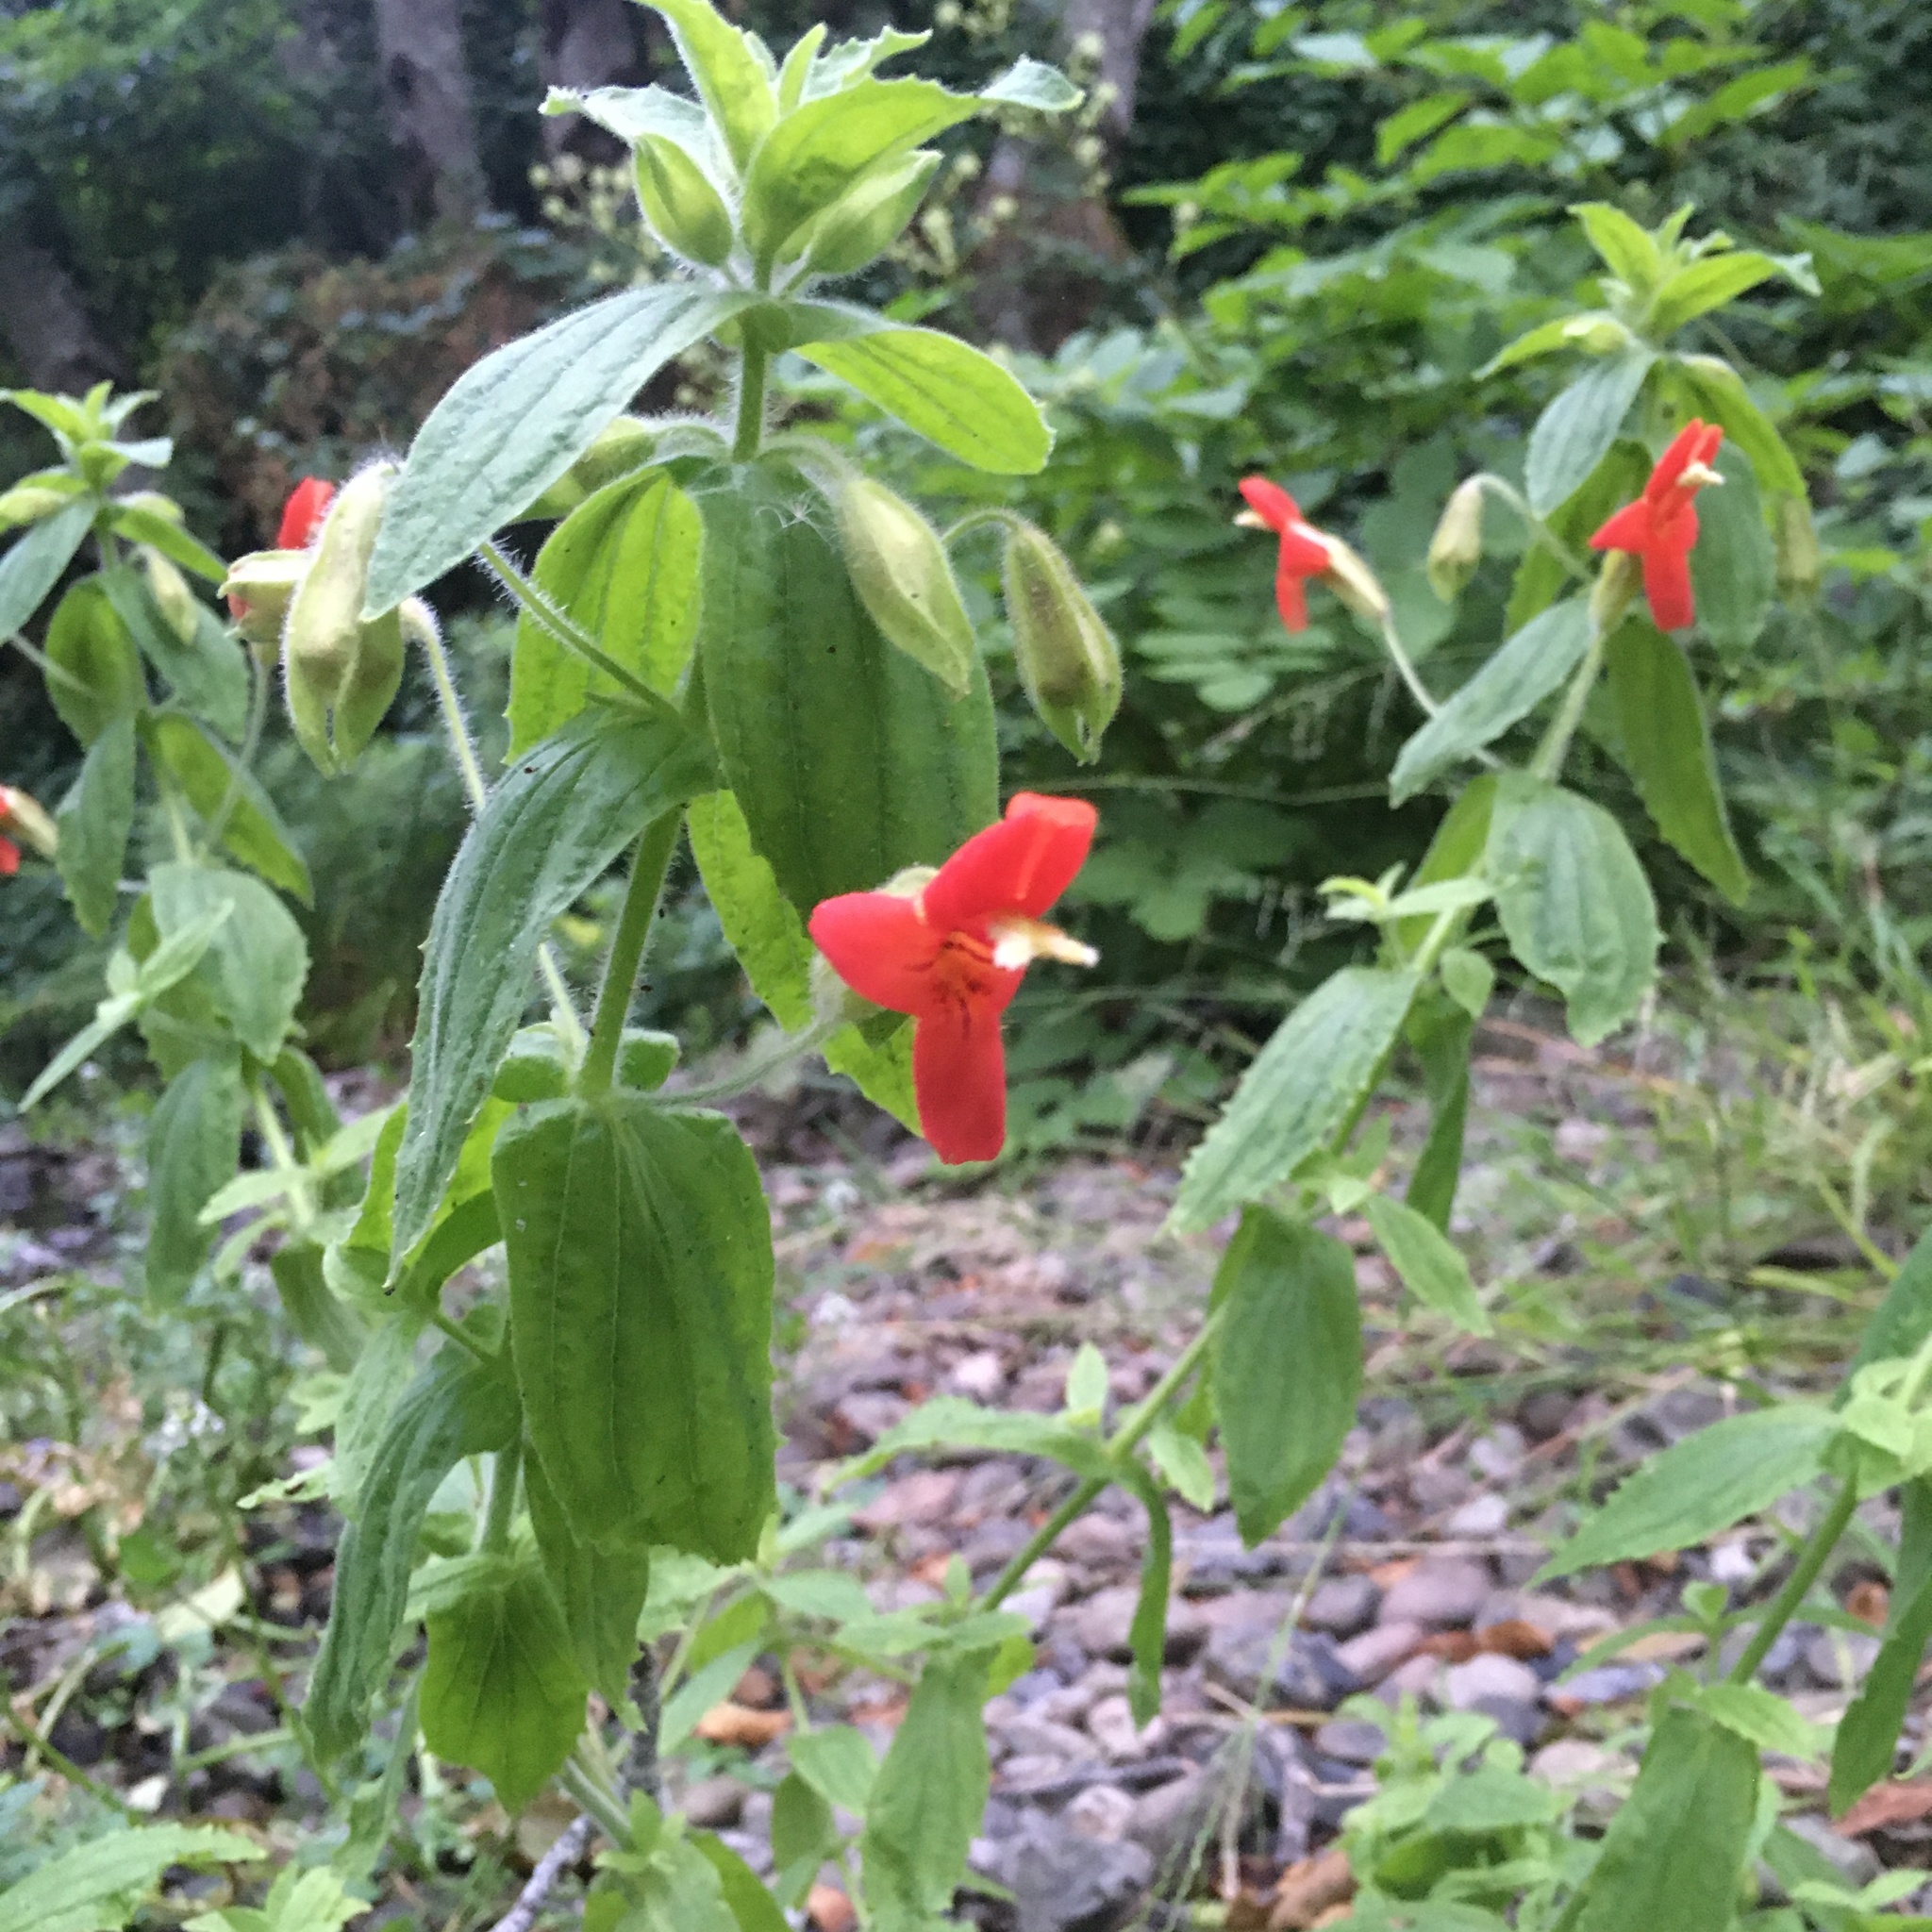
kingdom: Plantae
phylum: Tracheophyta
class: Magnoliopsida
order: Lamiales
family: Phrymaceae
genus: Erythranthe
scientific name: Erythranthe cardinalis
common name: Scarlet monkey-flower
